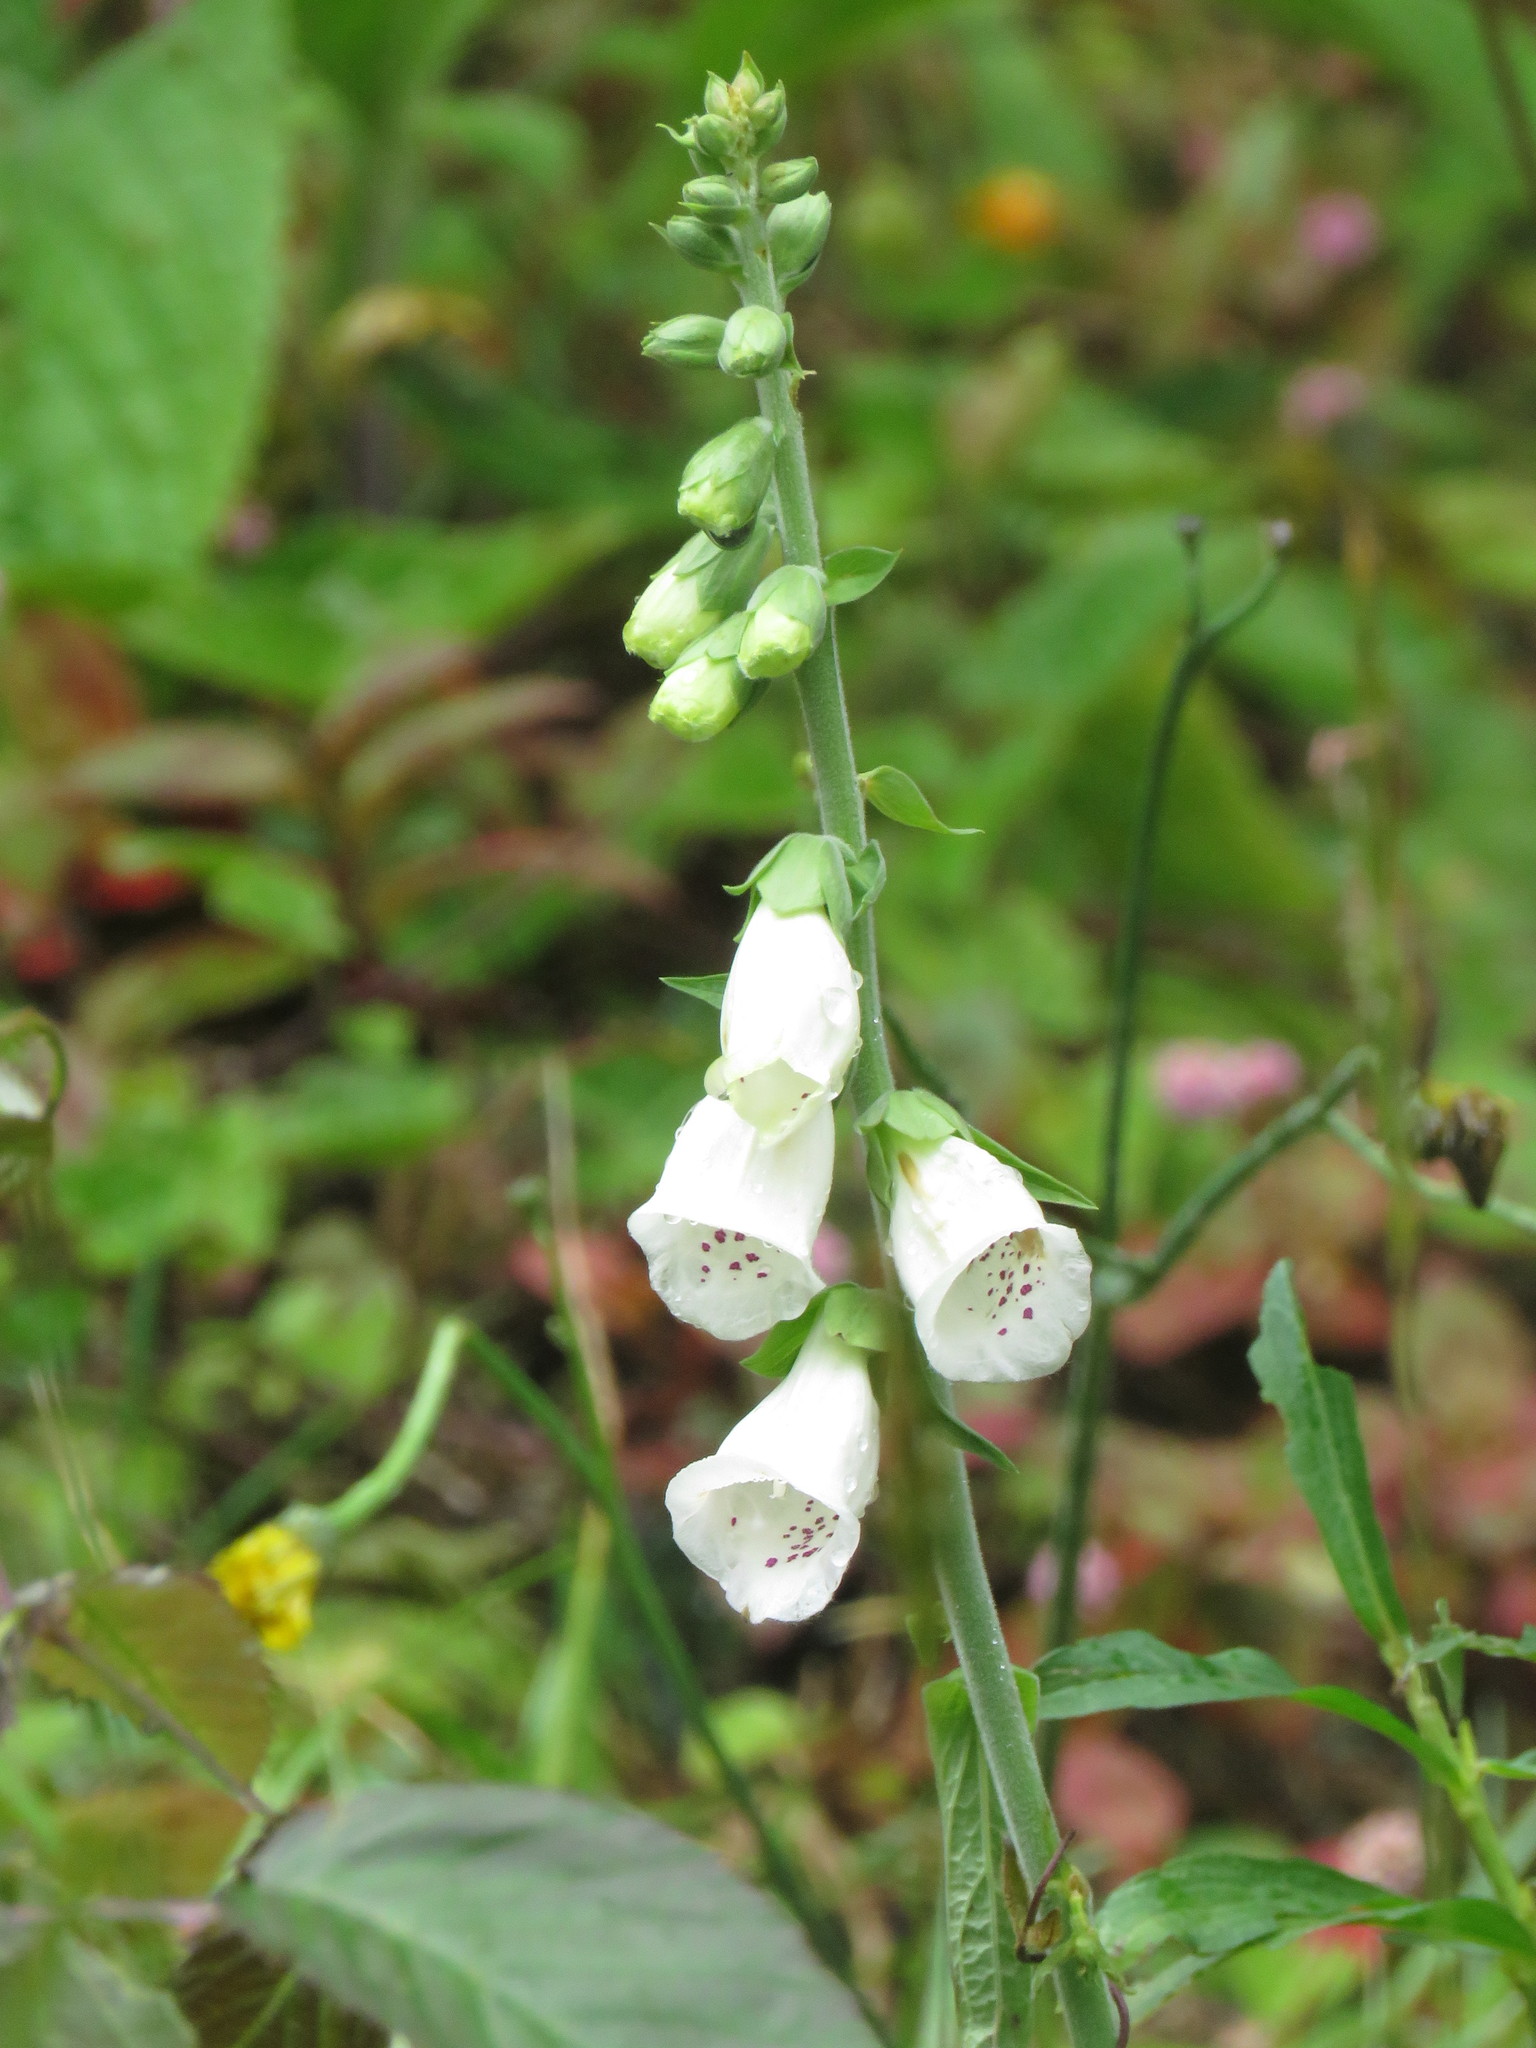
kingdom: Plantae
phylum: Tracheophyta
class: Magnoliopsida
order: Lamiales
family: Plantaginaceae
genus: Digitalis
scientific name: Digitalis purpurea
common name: Foxglove
